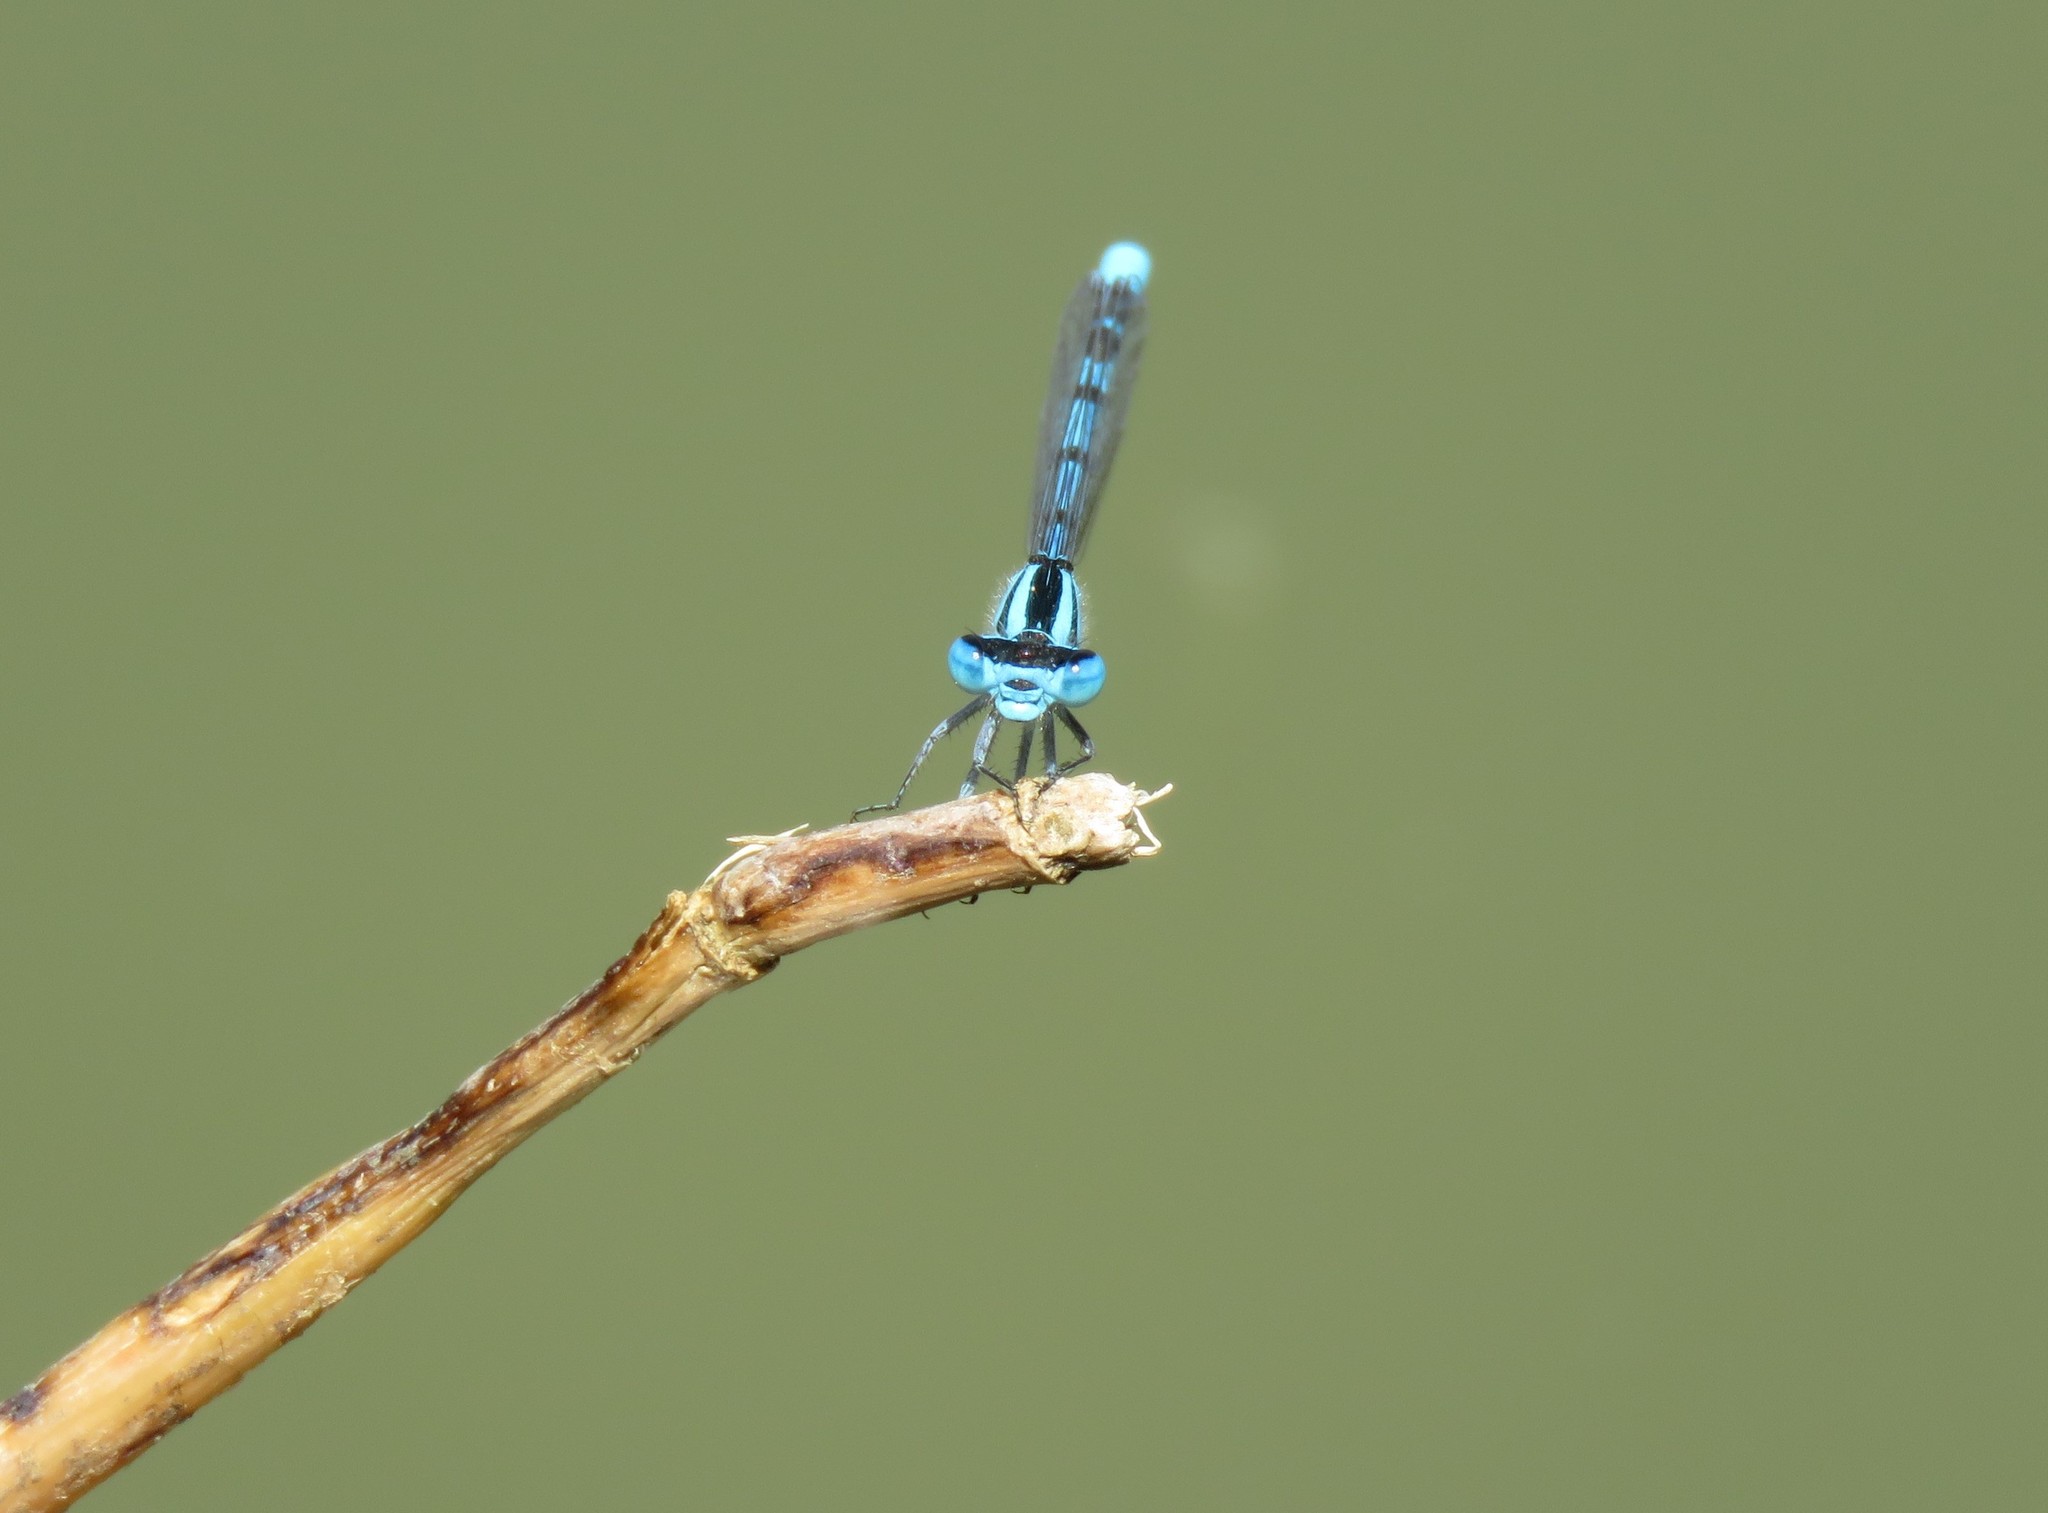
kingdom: Animalia
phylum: Arthropoda
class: Insecta
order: Odonata
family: Coenagrionidae
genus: Enallagma
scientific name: Enallagma cyathigerum
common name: Common blue damselfly
